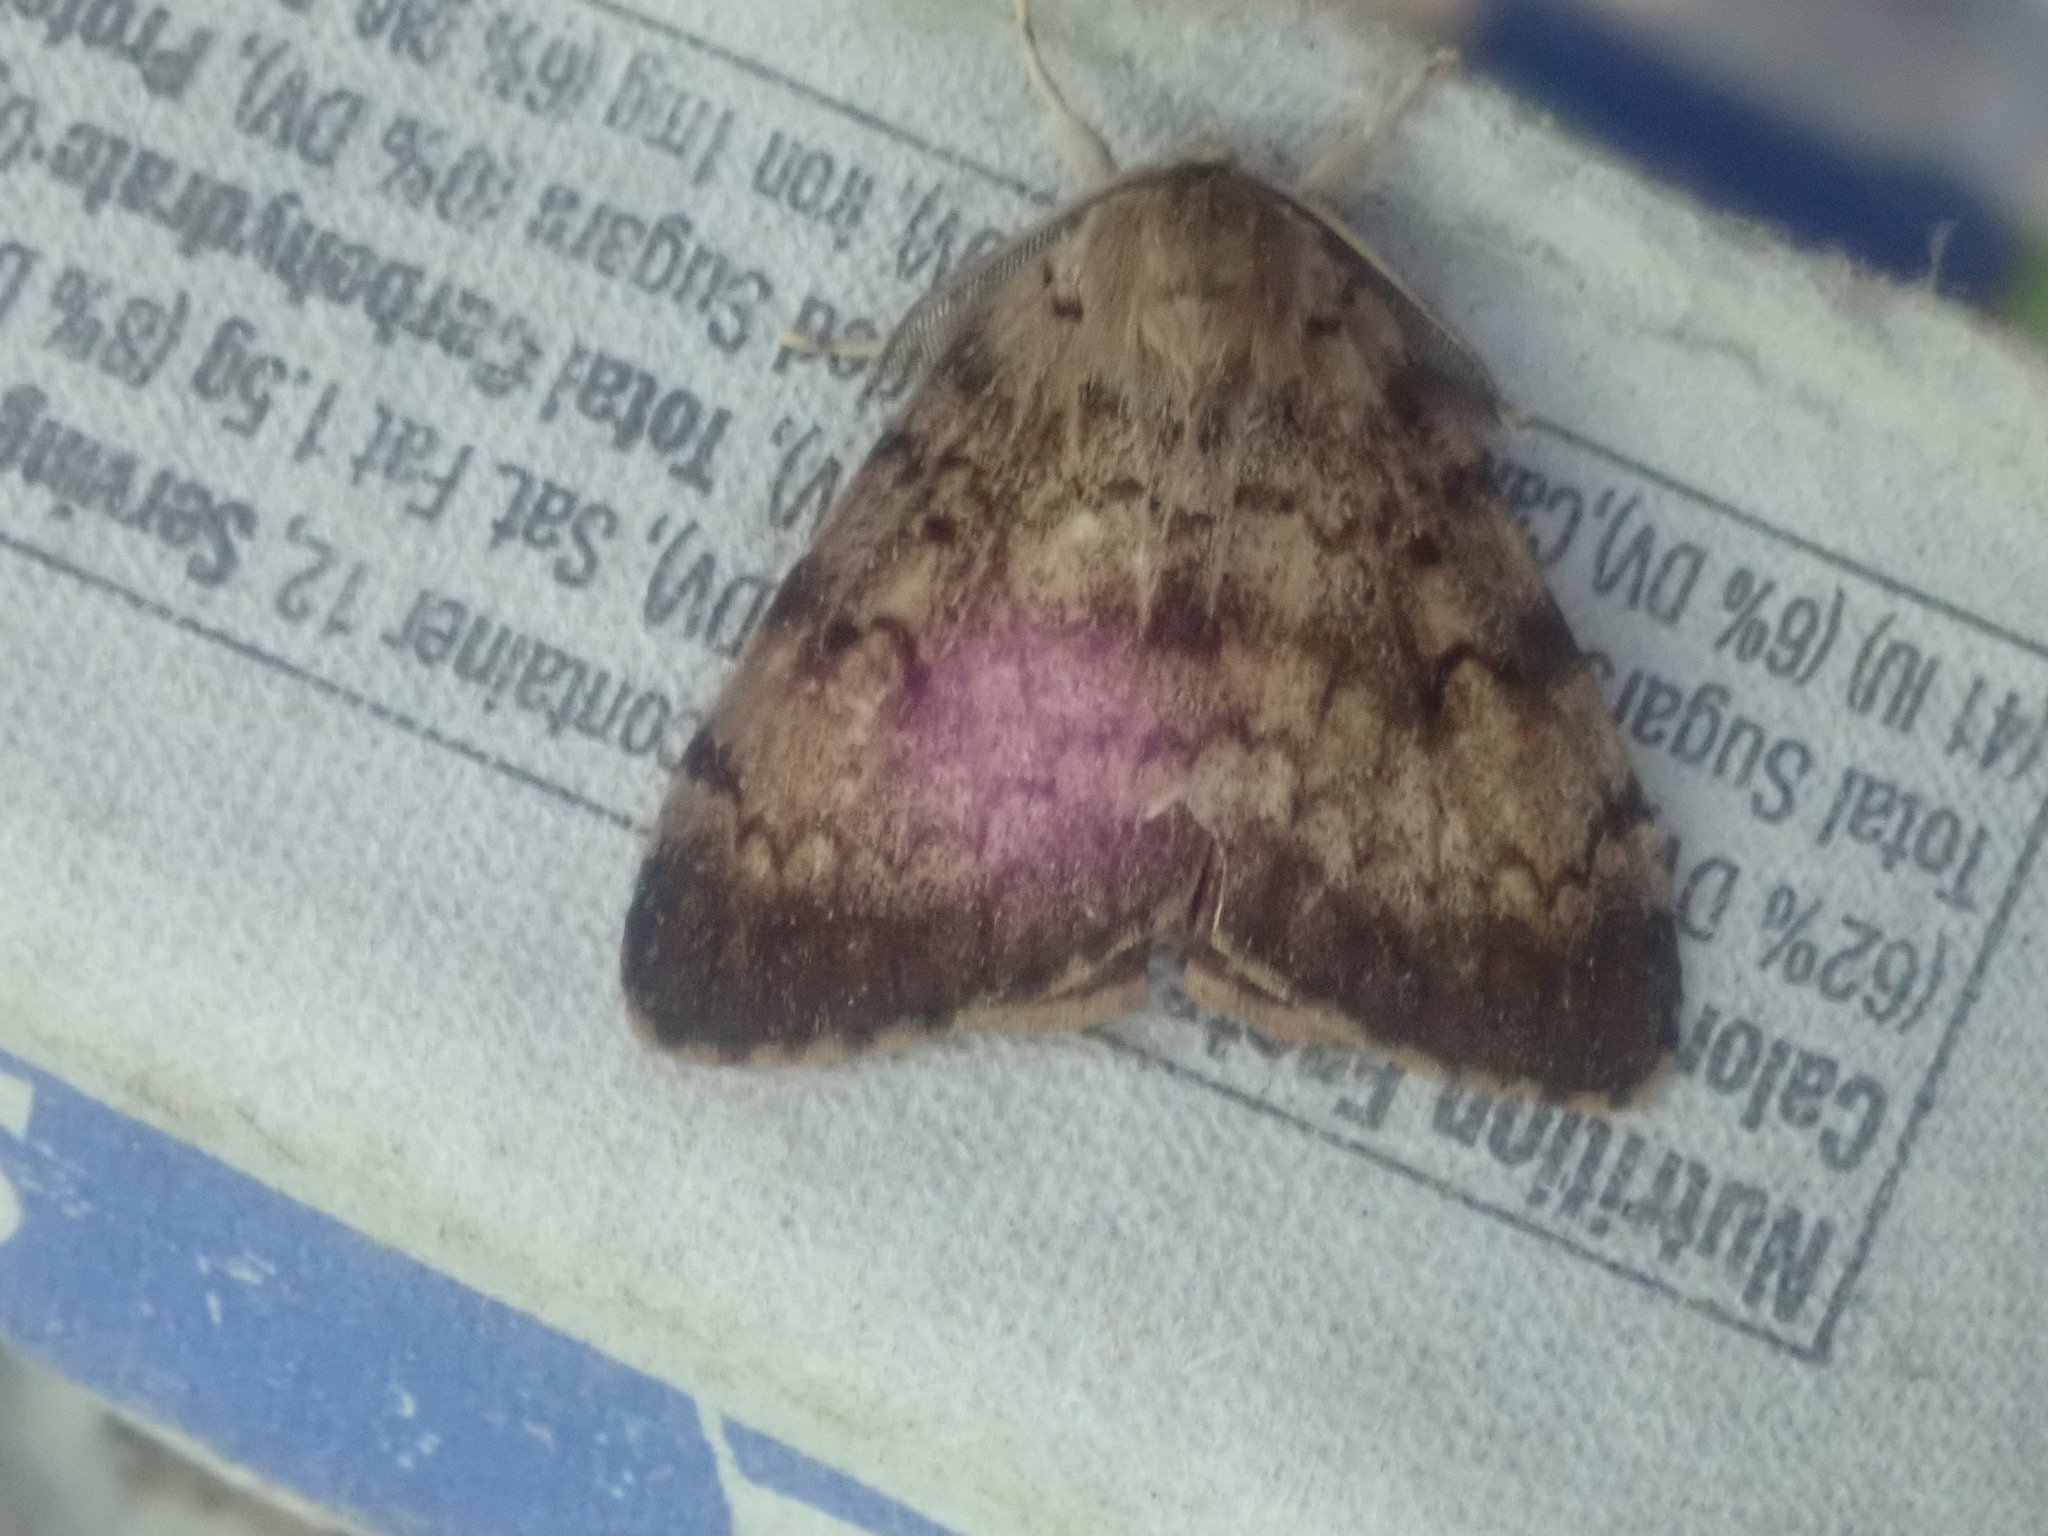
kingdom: Animalia
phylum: Arthropoda
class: Insecta
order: Lepidoptera
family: Erebidae
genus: Lymantria
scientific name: Lymantria dispar
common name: Gypsy moth
